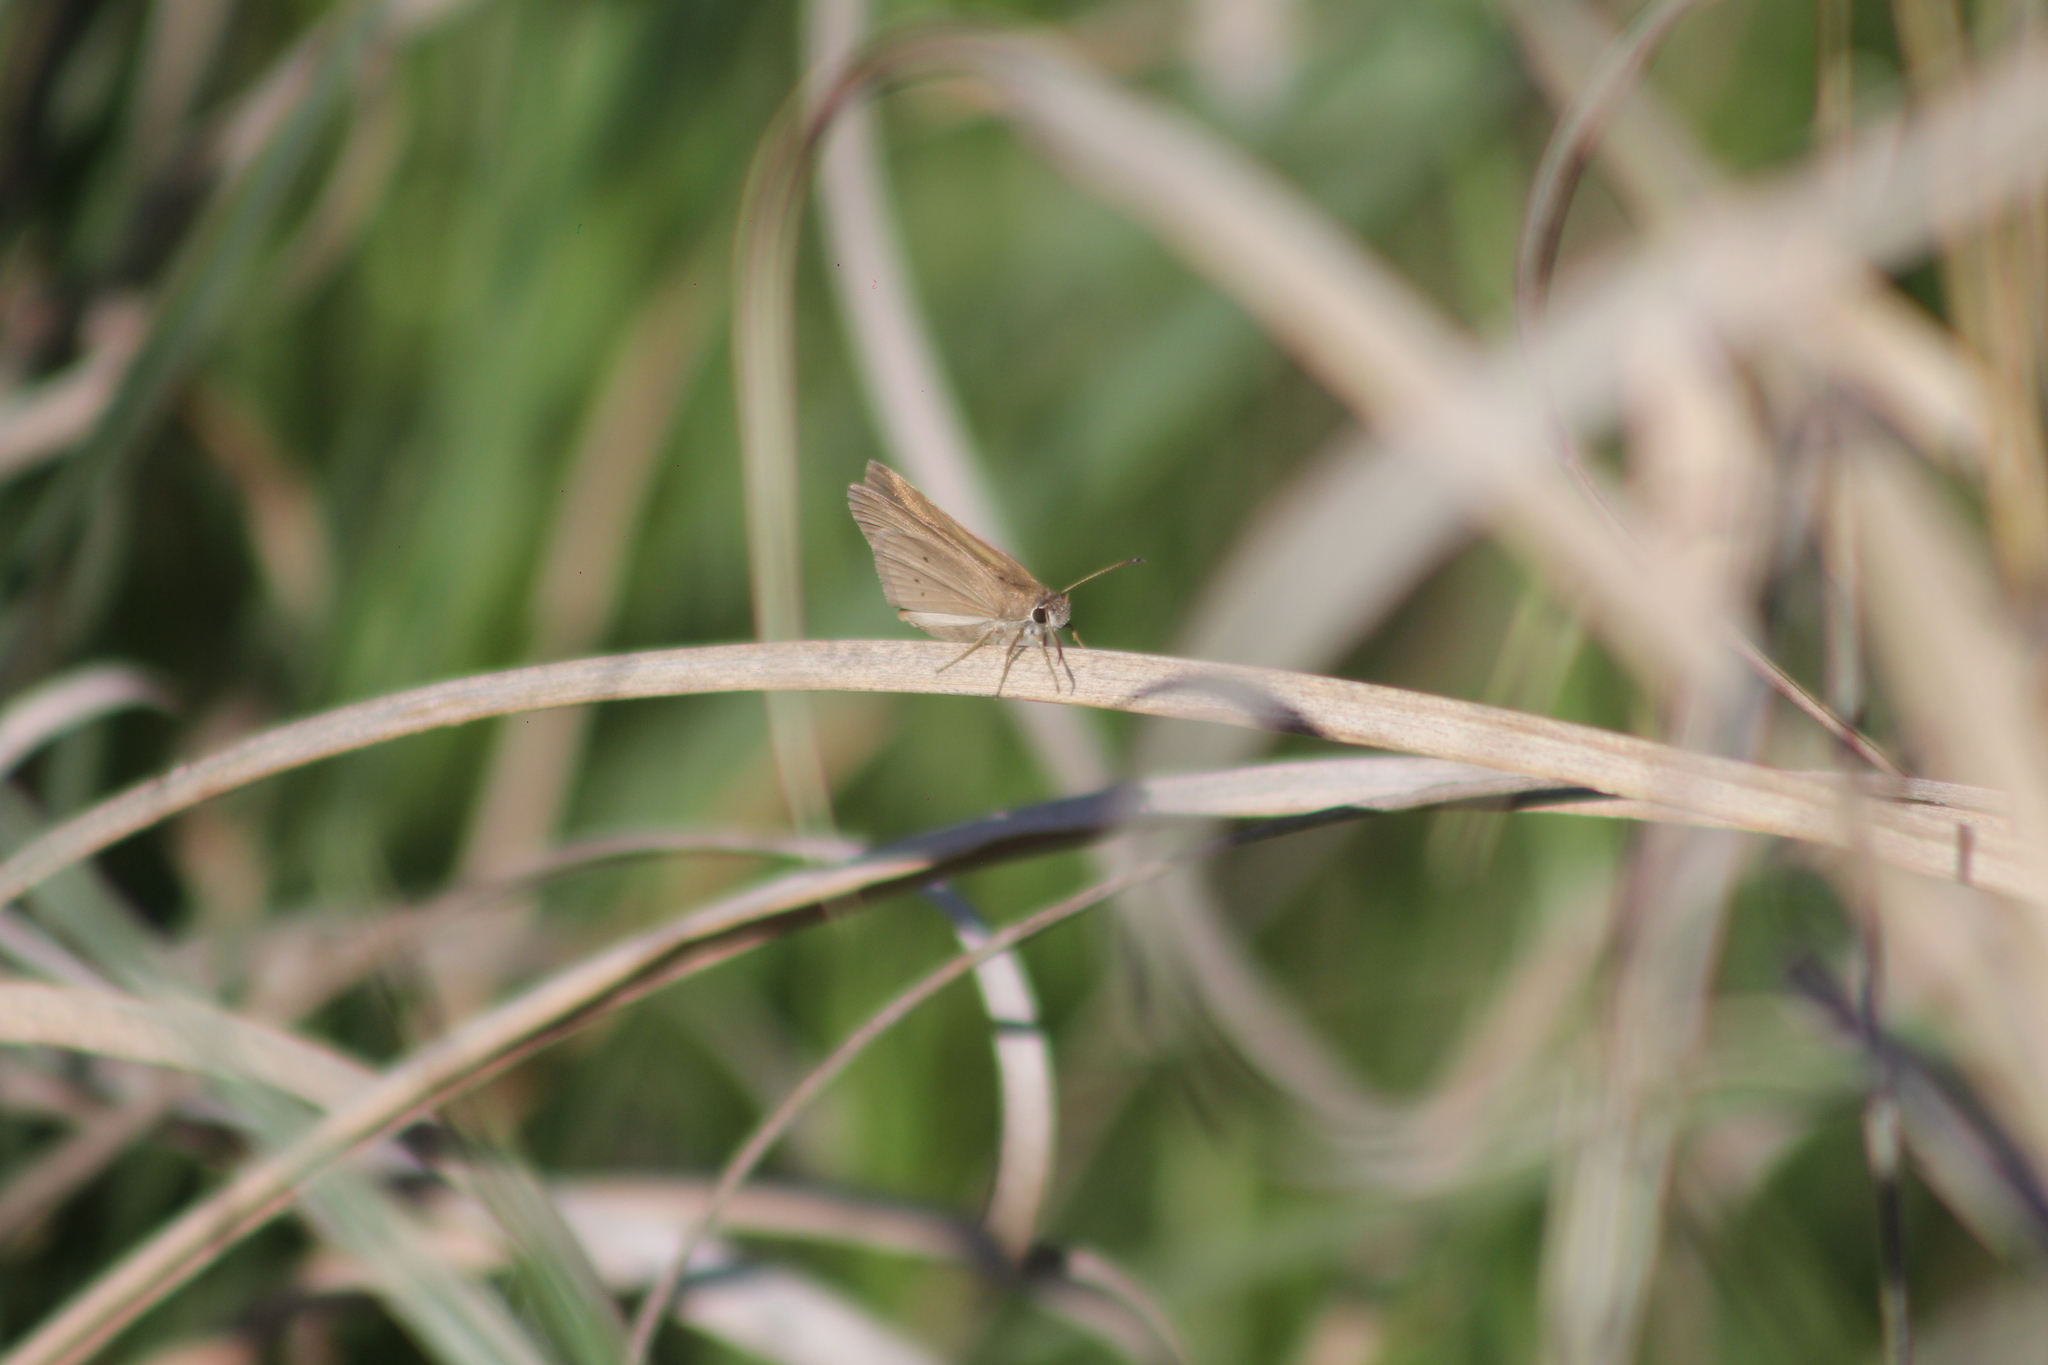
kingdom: Animalia
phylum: Arthropoda
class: Insecta
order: Lepidoptera
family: Hesperiidae
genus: Panca
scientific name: Panca subpunctuli
